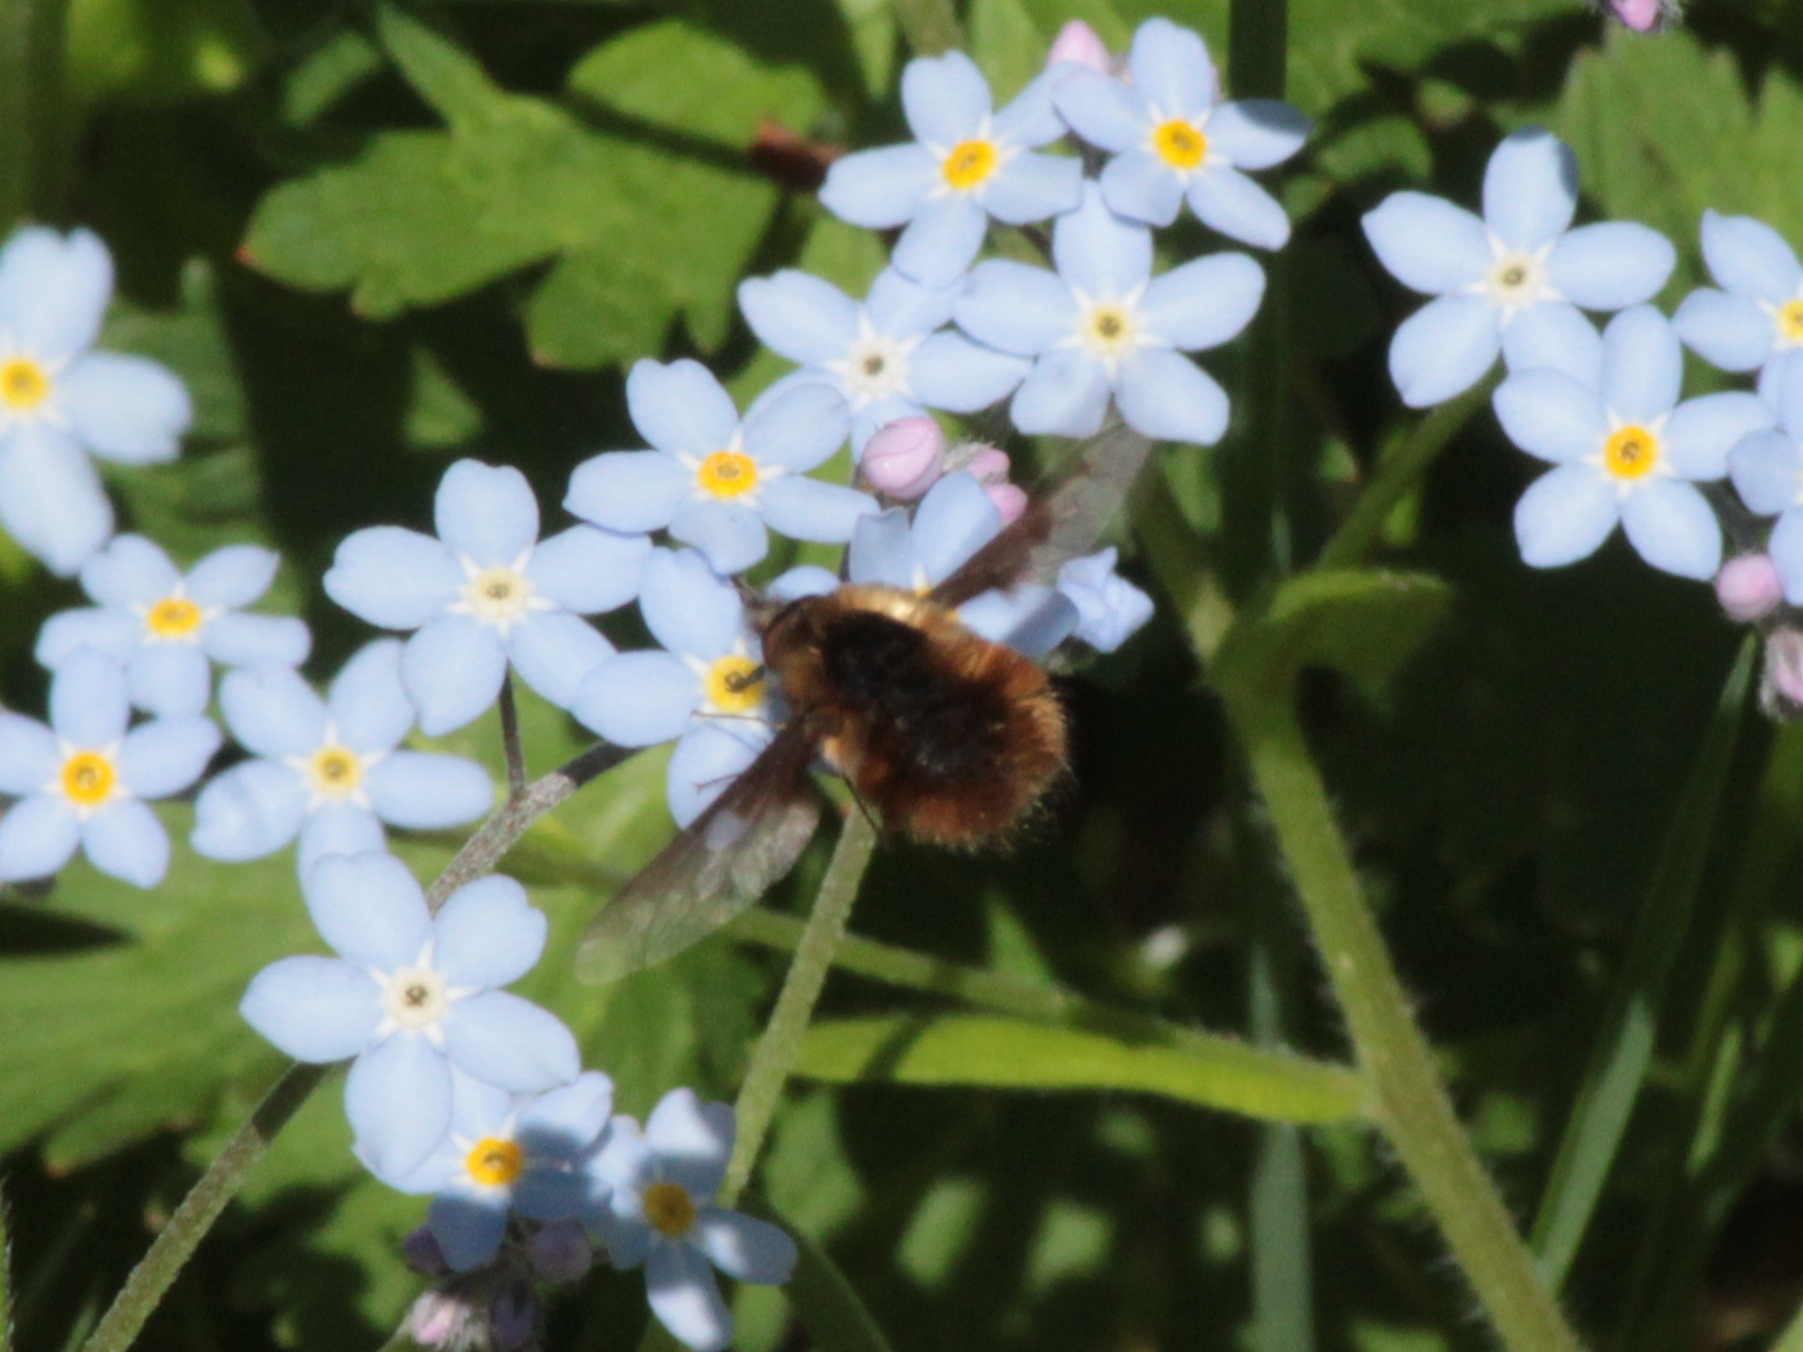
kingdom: Animalia
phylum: Arthropoda
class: Insecta
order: Diptera
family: Bombyliidae
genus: Bombylius
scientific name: Bombylius major
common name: Bee fly
